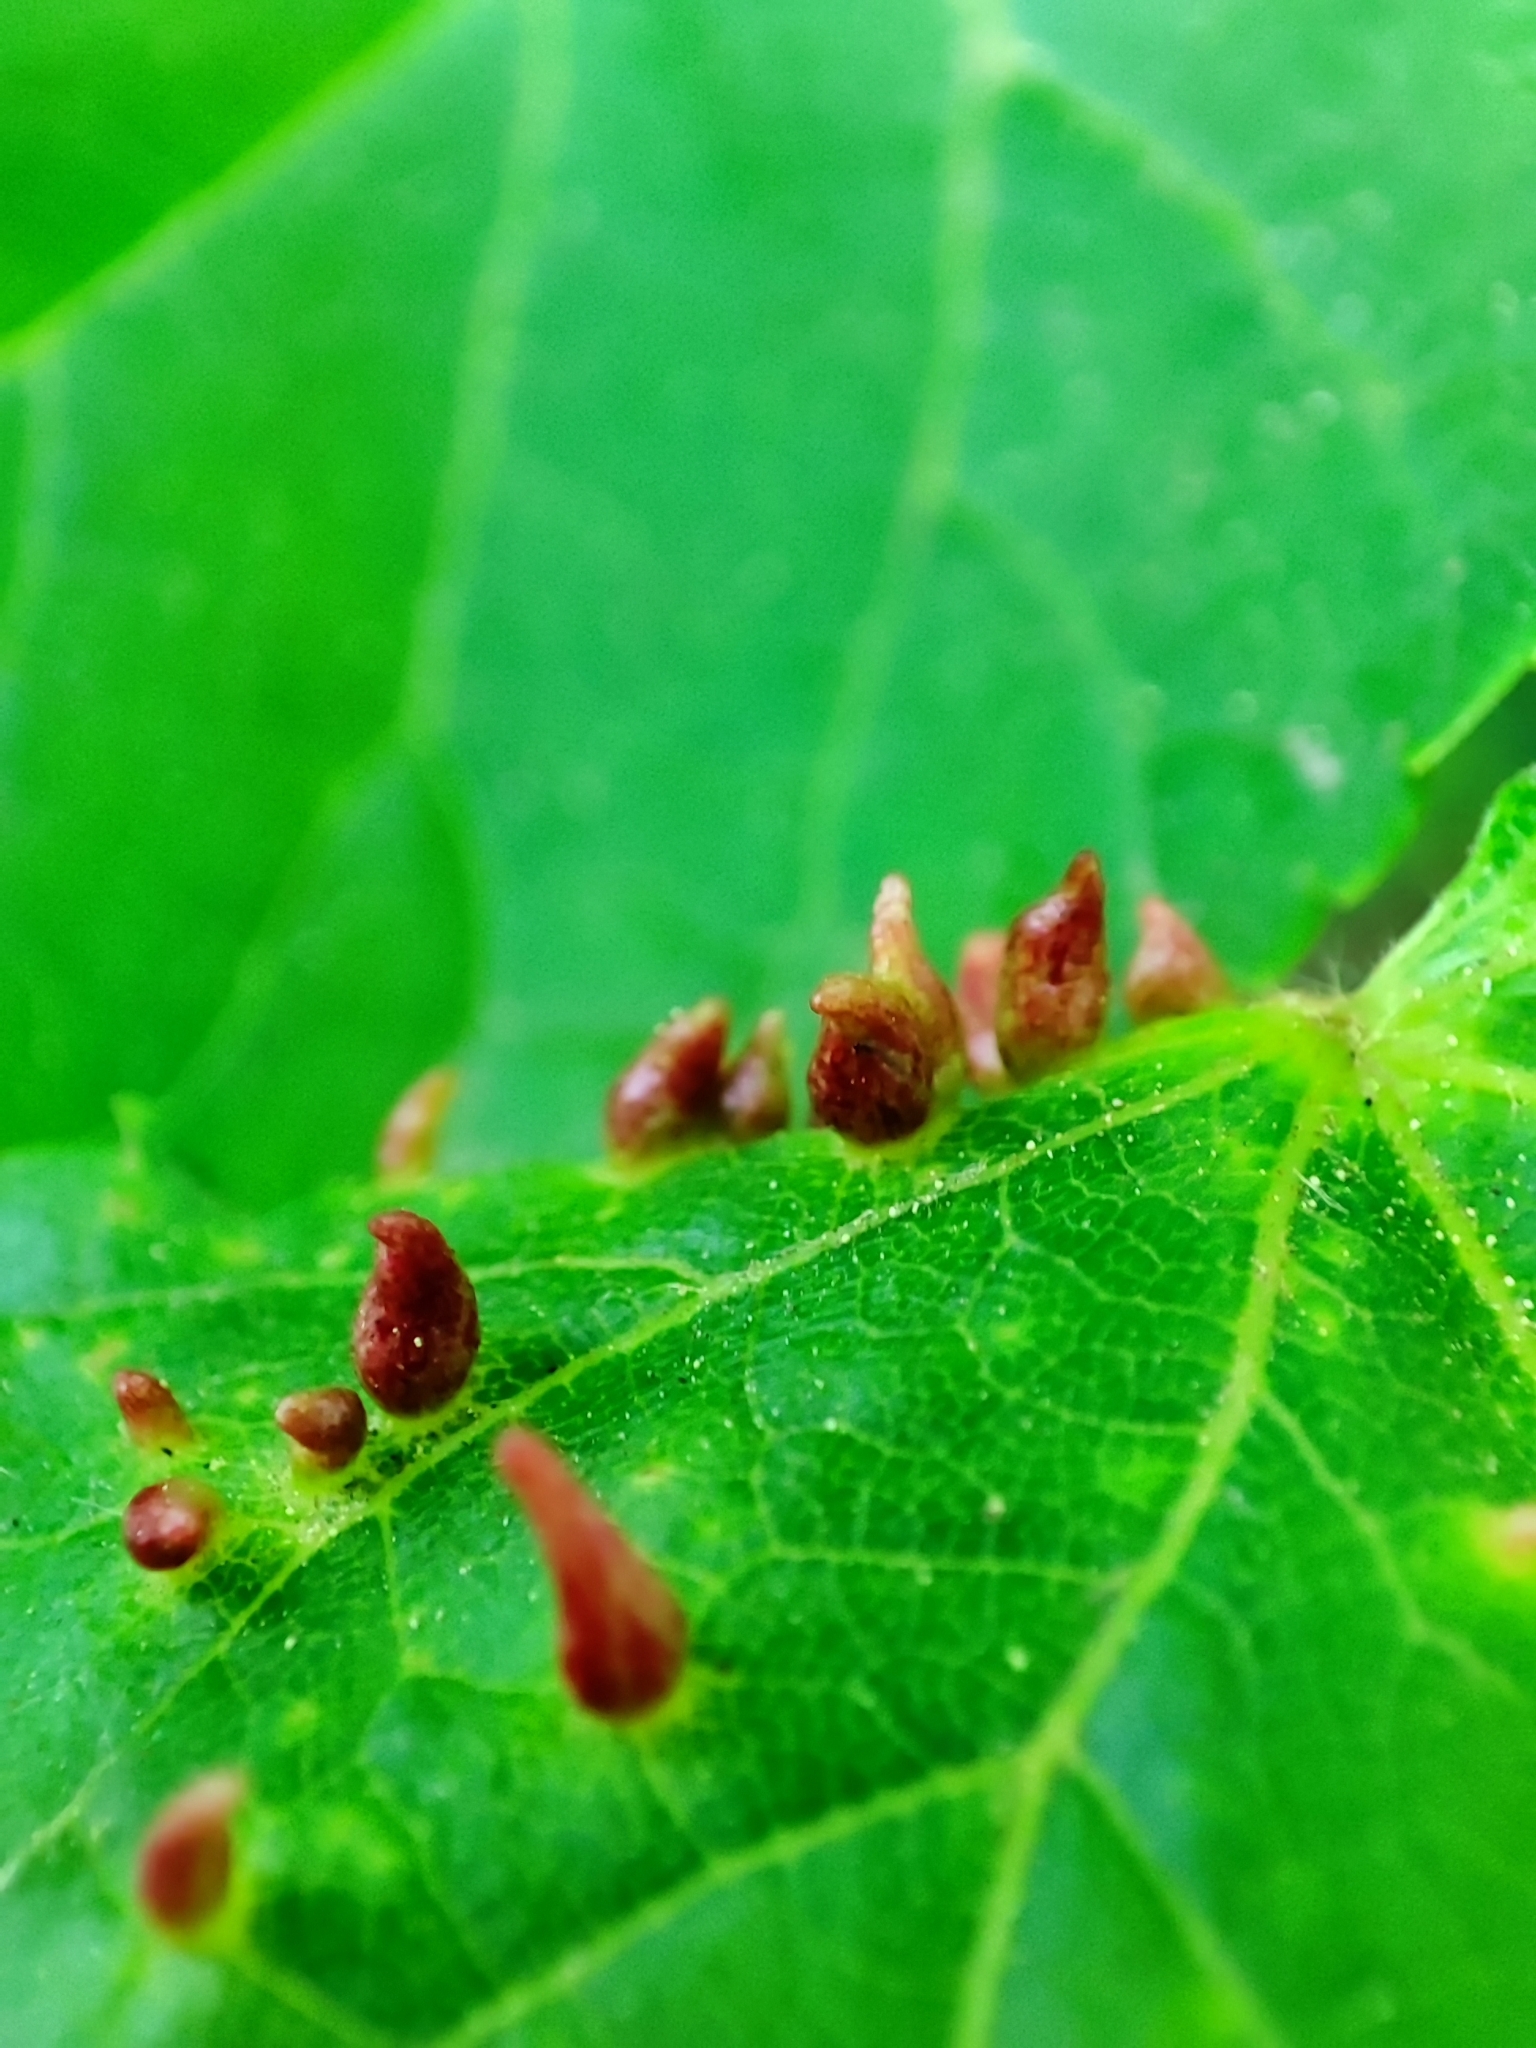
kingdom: Animalia
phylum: Arthropoda
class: Arachnida
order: Trombidiformes
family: Eriophyidae
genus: Eriophyes
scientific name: Eriophyes tiliae
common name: Red nail gall mite
